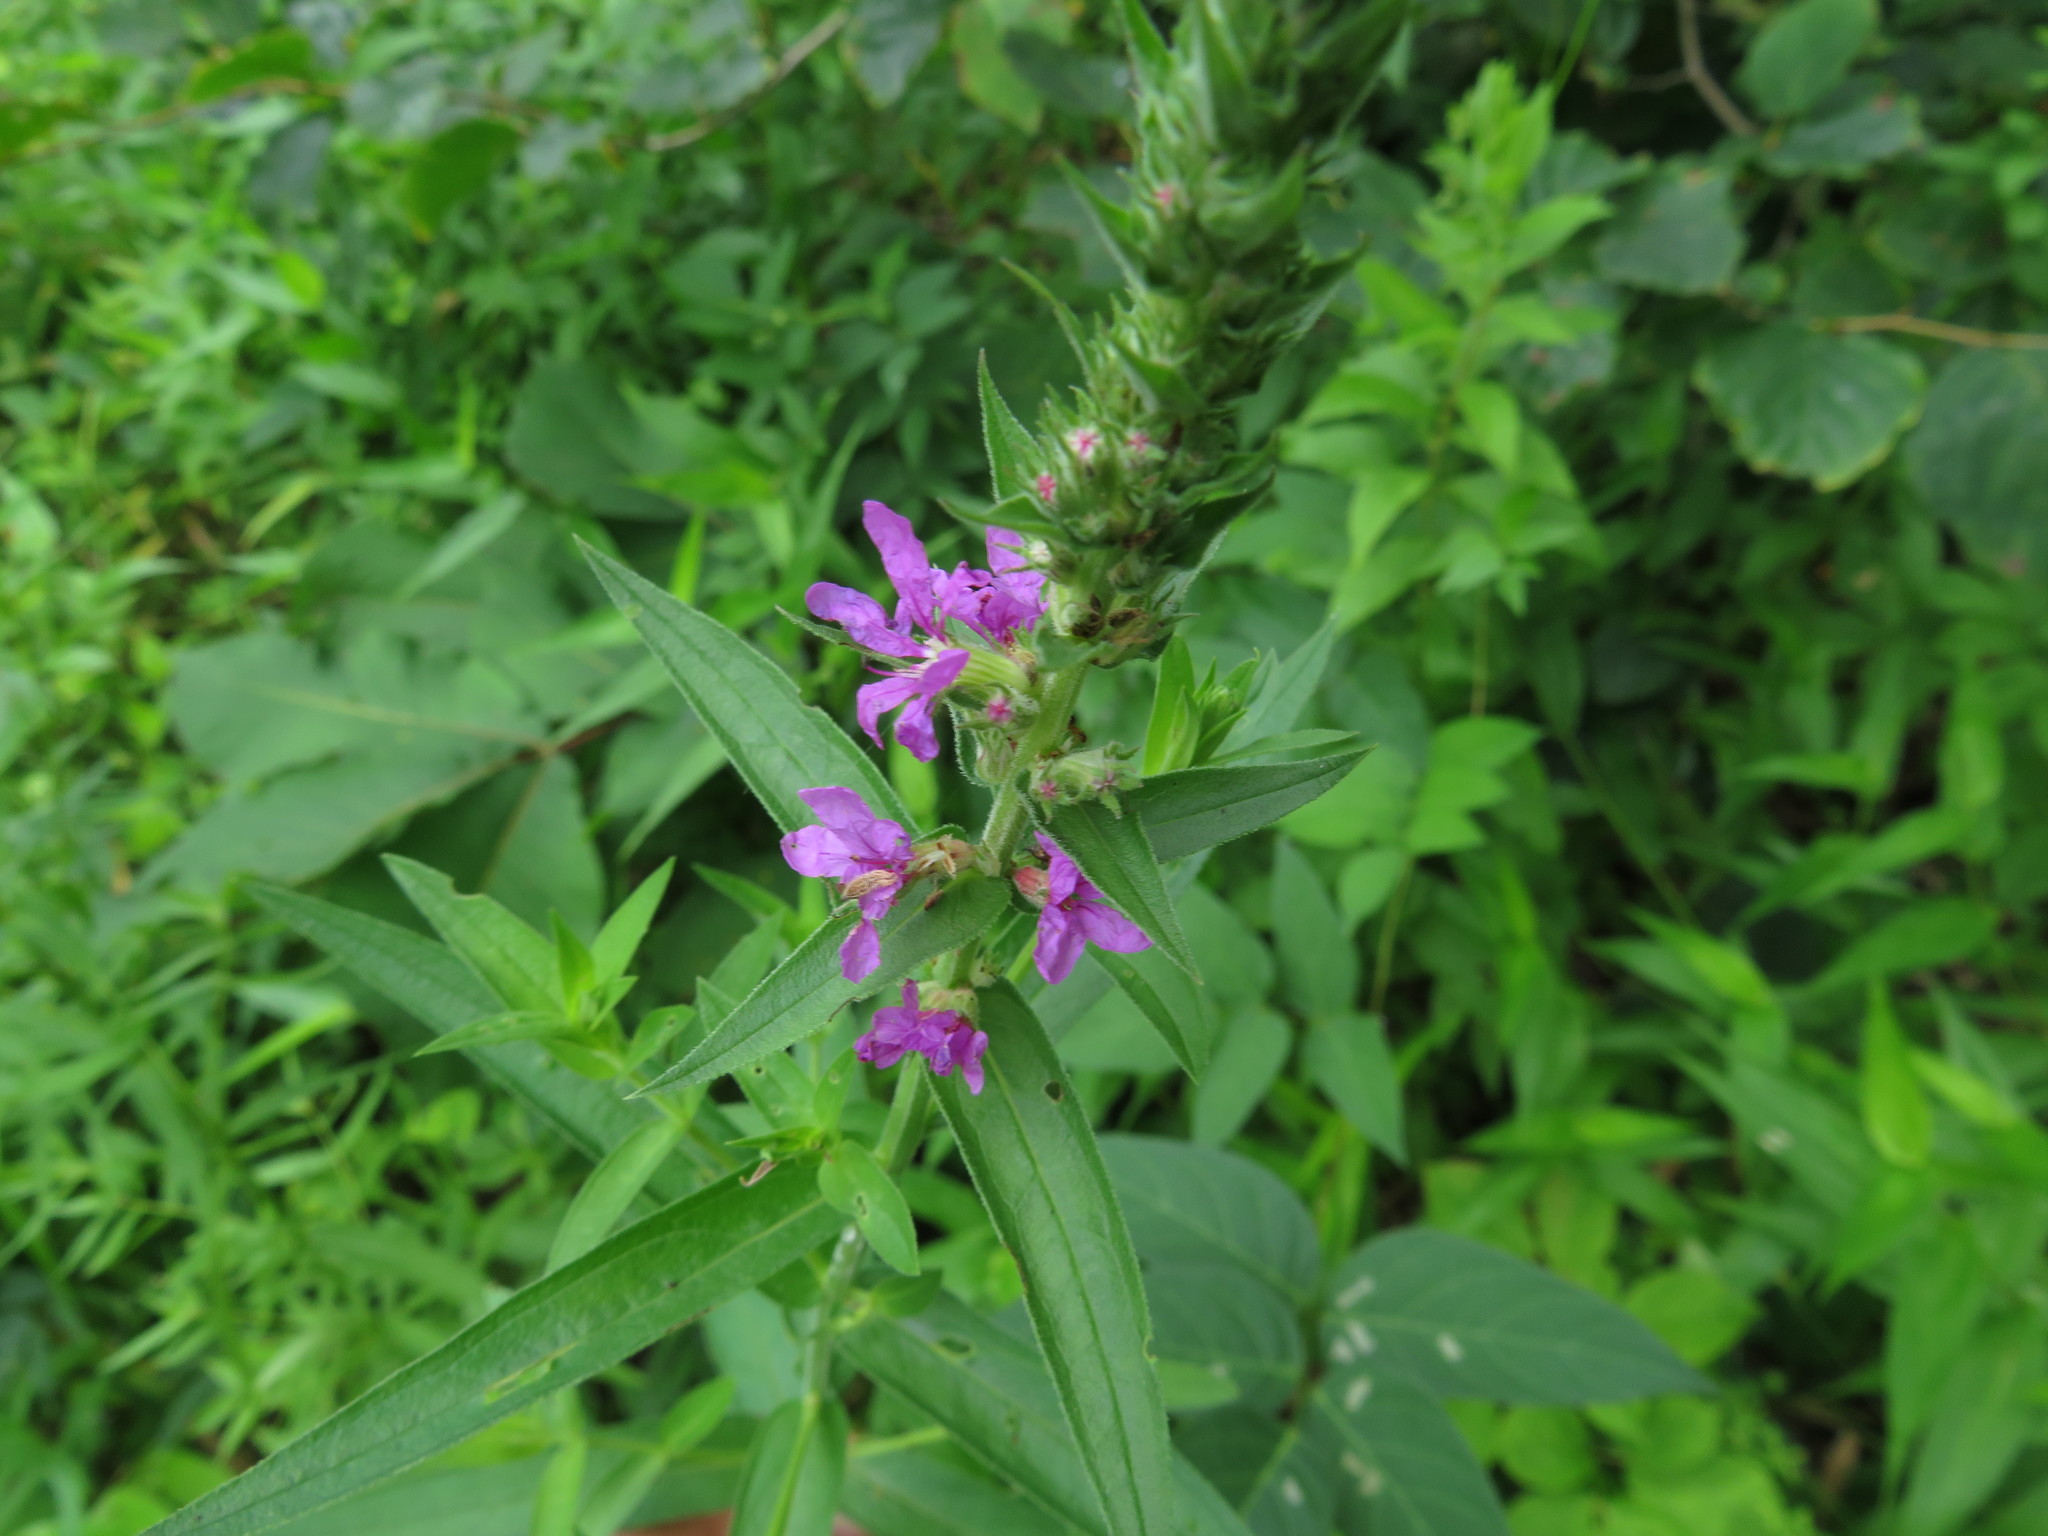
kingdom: Plantae
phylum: Tracheophyta
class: Magnoliopsida
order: Myrtales
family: Lythraceae
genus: Lythrum
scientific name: Lythrum salicaria
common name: Purple loosestrife
